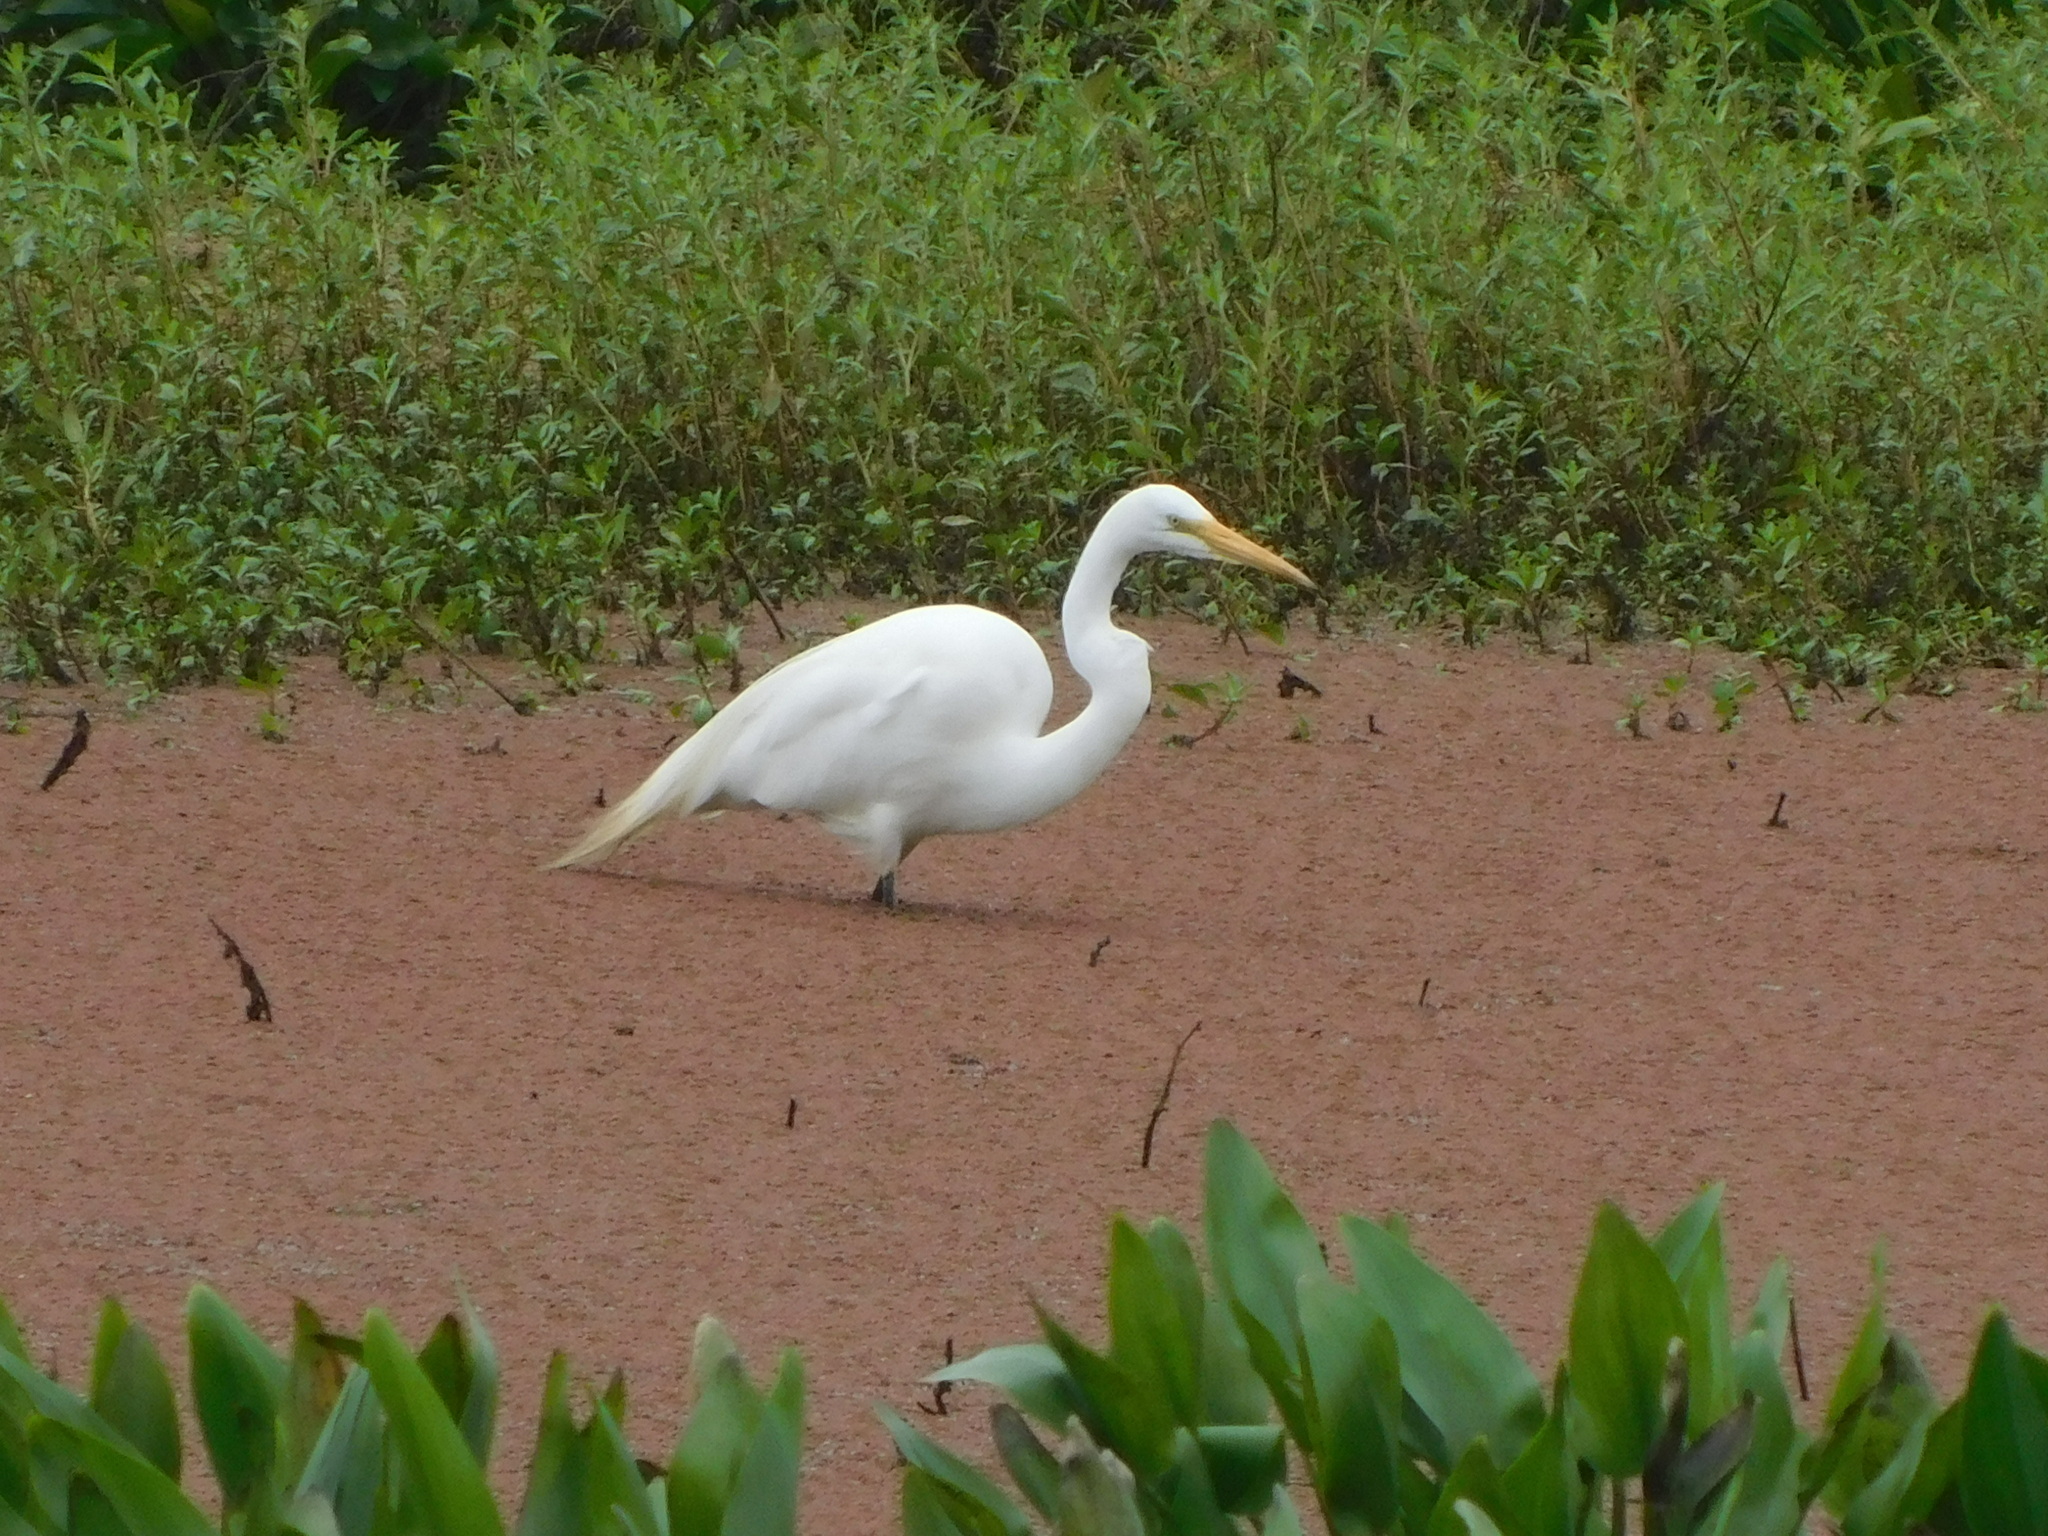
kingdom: Animalia
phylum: Chordata
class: Aves
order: Pelecaniformes
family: Ardeidae
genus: Ardea
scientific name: Ardea alba
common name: Great egret
